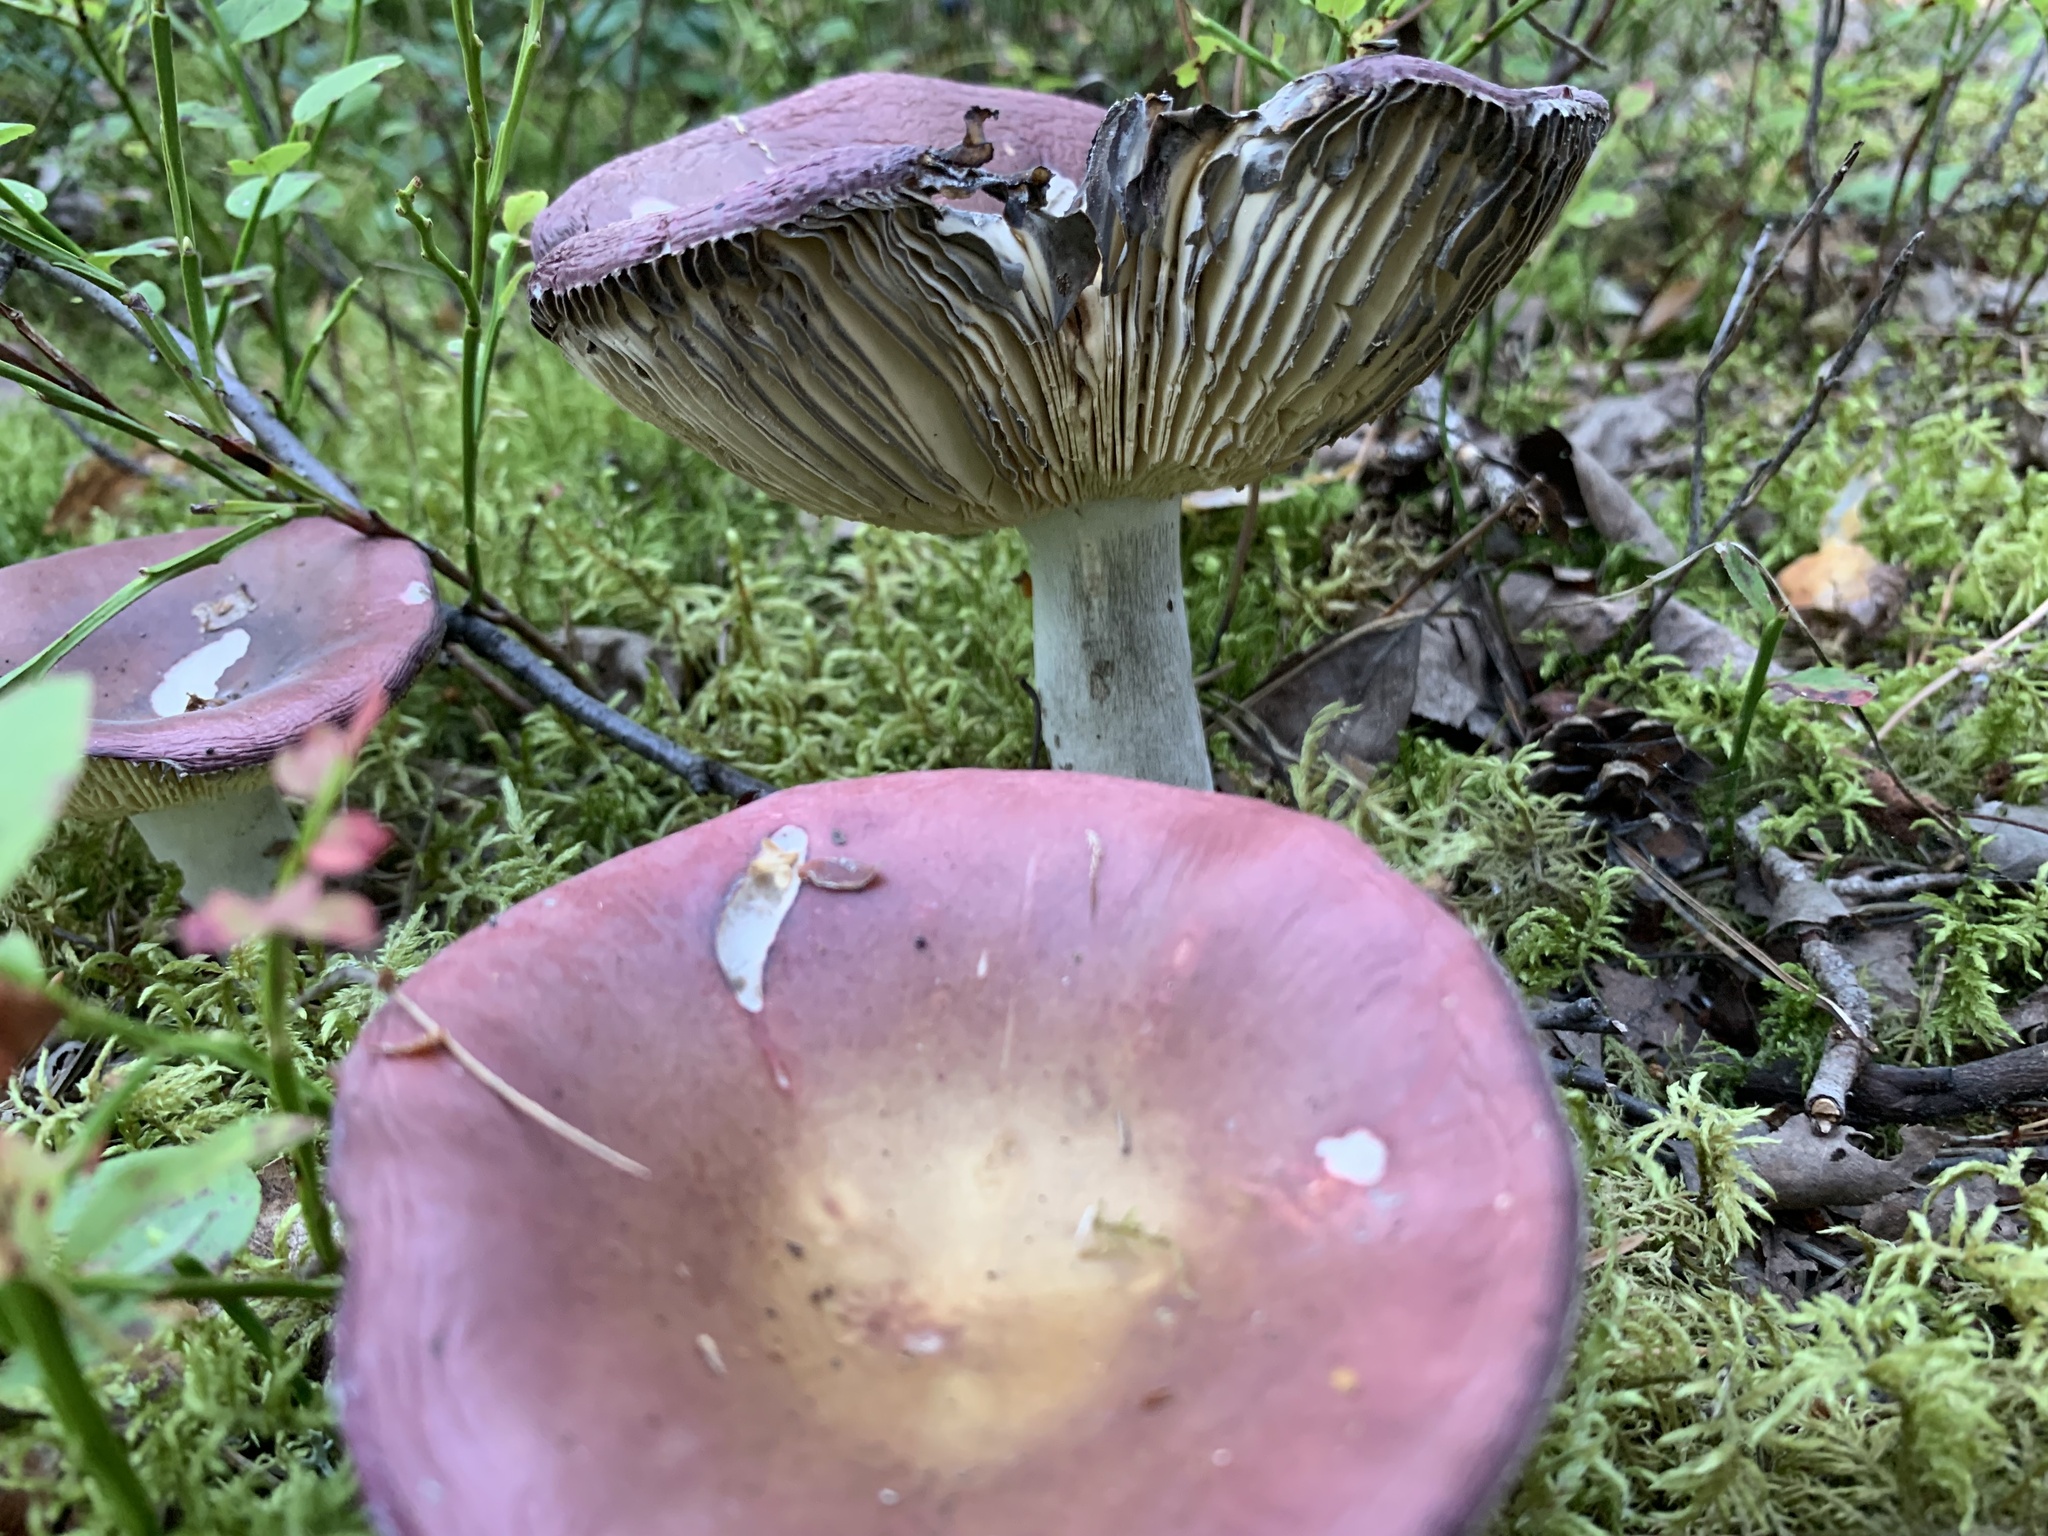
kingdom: Fungi
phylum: Basidiomycota
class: Agaricomycetes
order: Russulales
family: Russulaceae
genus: Russula
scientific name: Russula vinosa
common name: Darkening brittlegill
